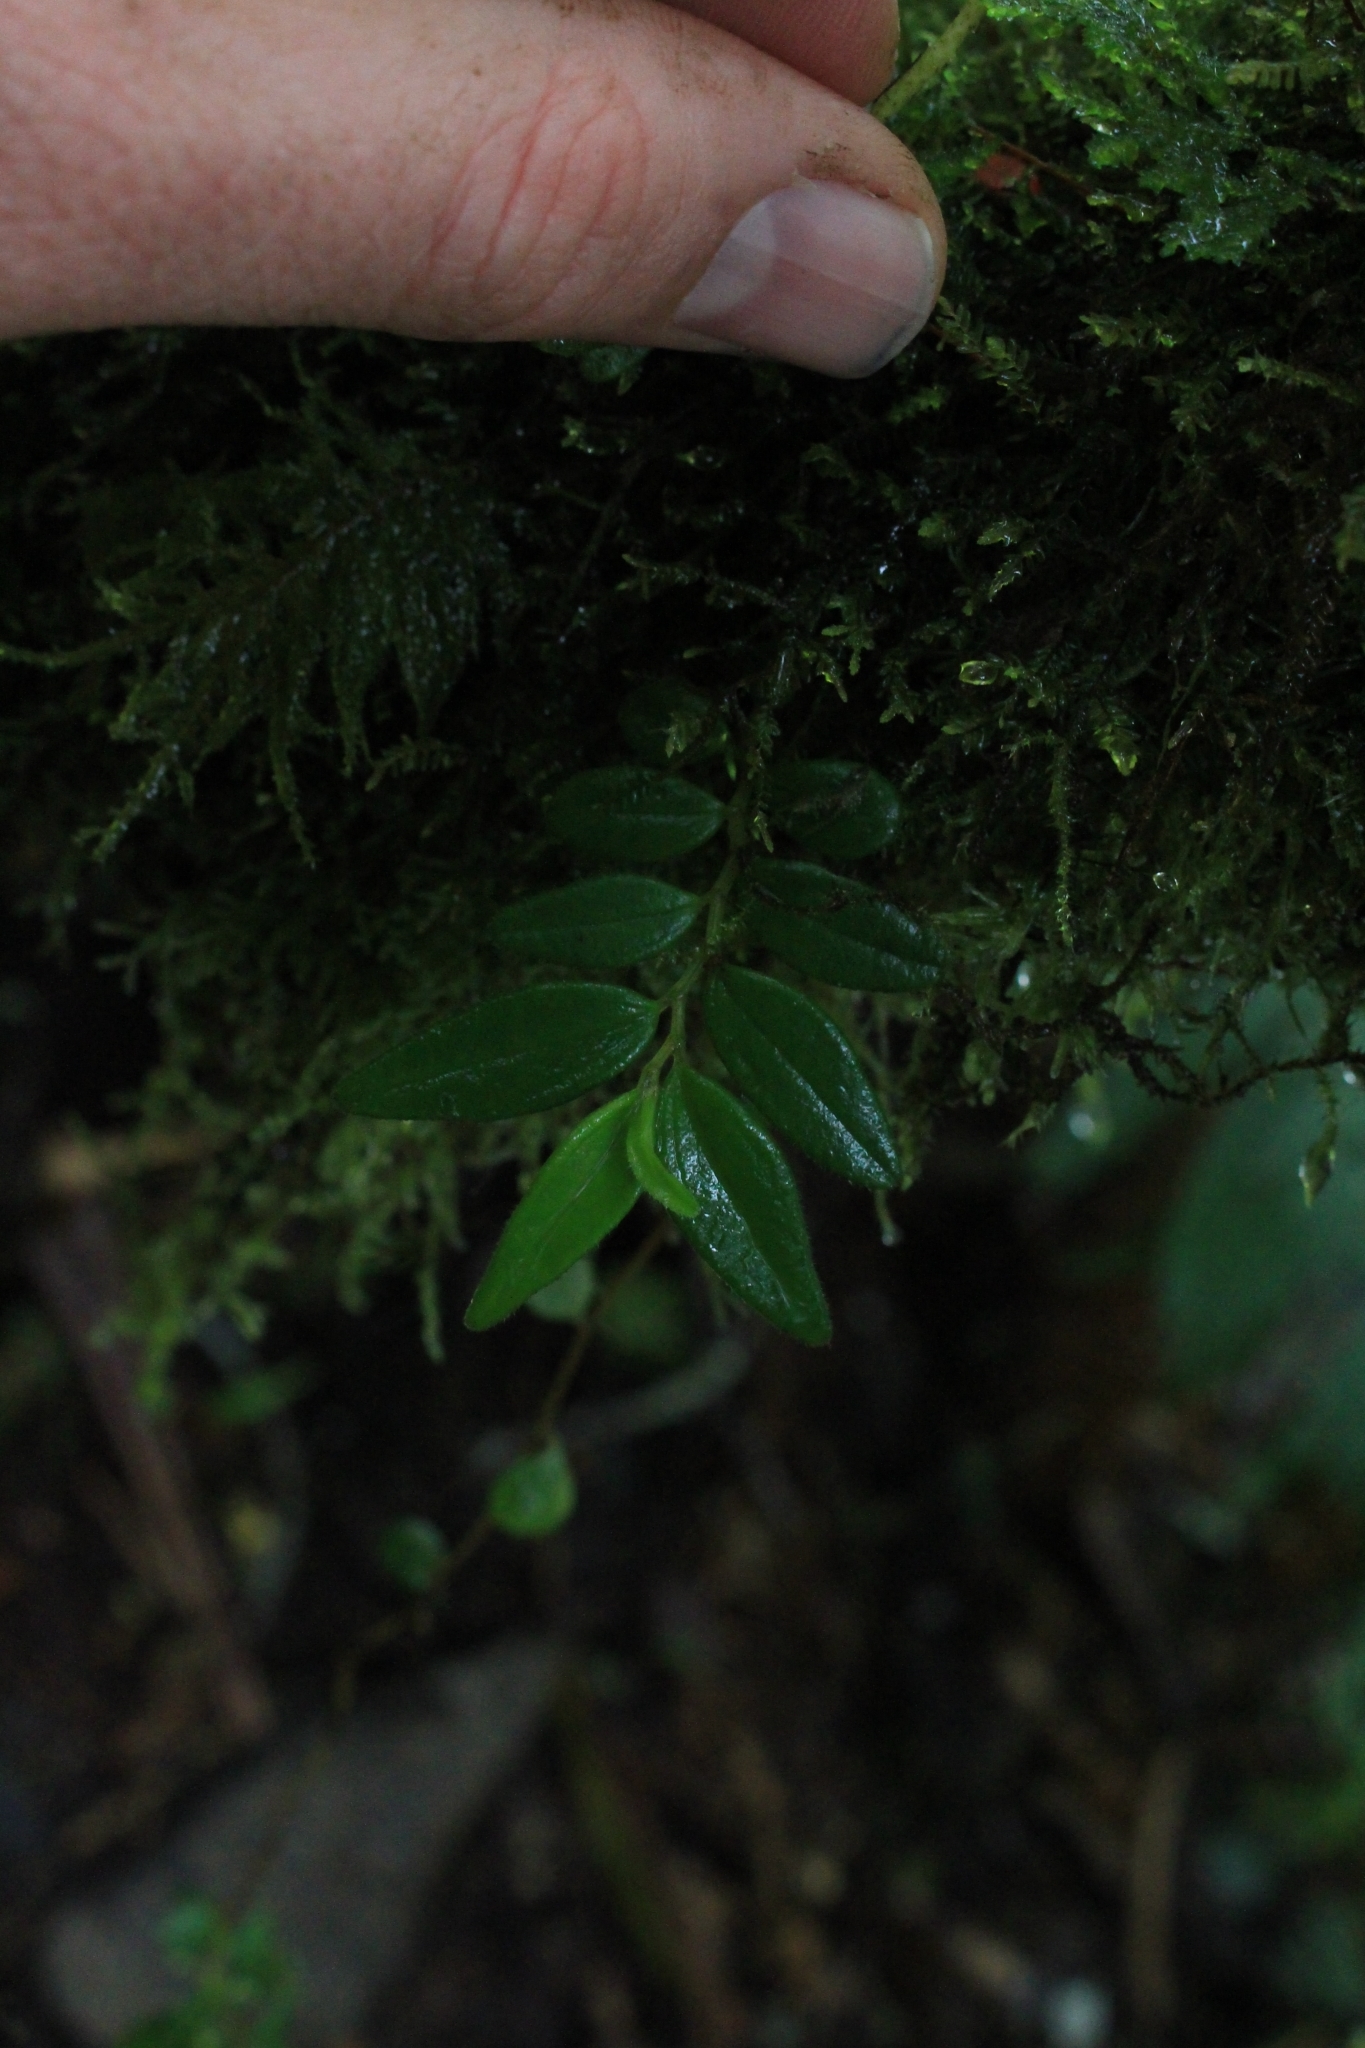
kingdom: Plantae
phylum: Tracheophyta
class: Magnoliopsida
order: Piperales
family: Piperaceae
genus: Peperomia
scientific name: Peperomia tenelliformis
